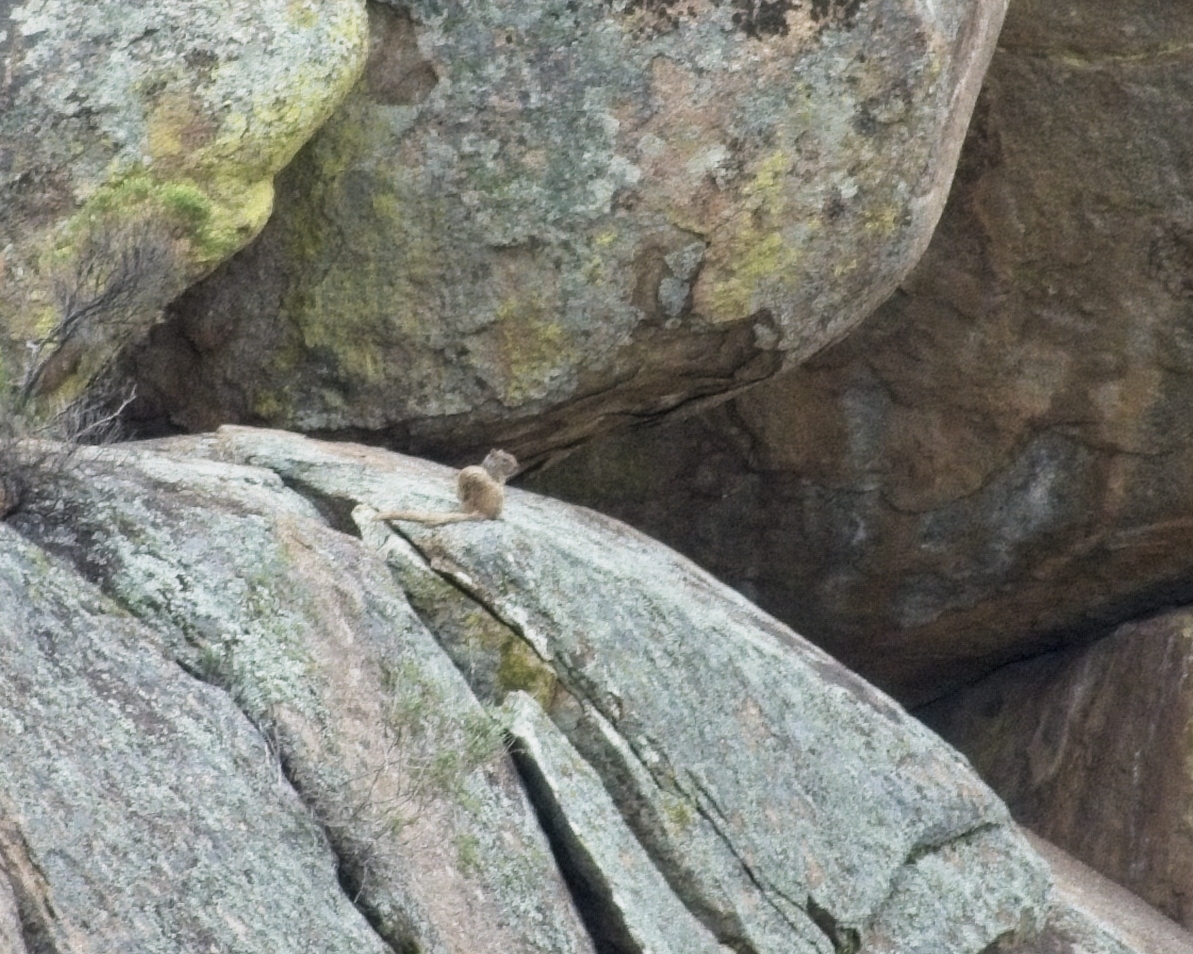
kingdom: Animalia
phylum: Chordata
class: Mammalia
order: Rodentia
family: Sciuridae
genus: Otospermophilus
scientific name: Otospermophilus variegatus
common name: Rock squirrel
